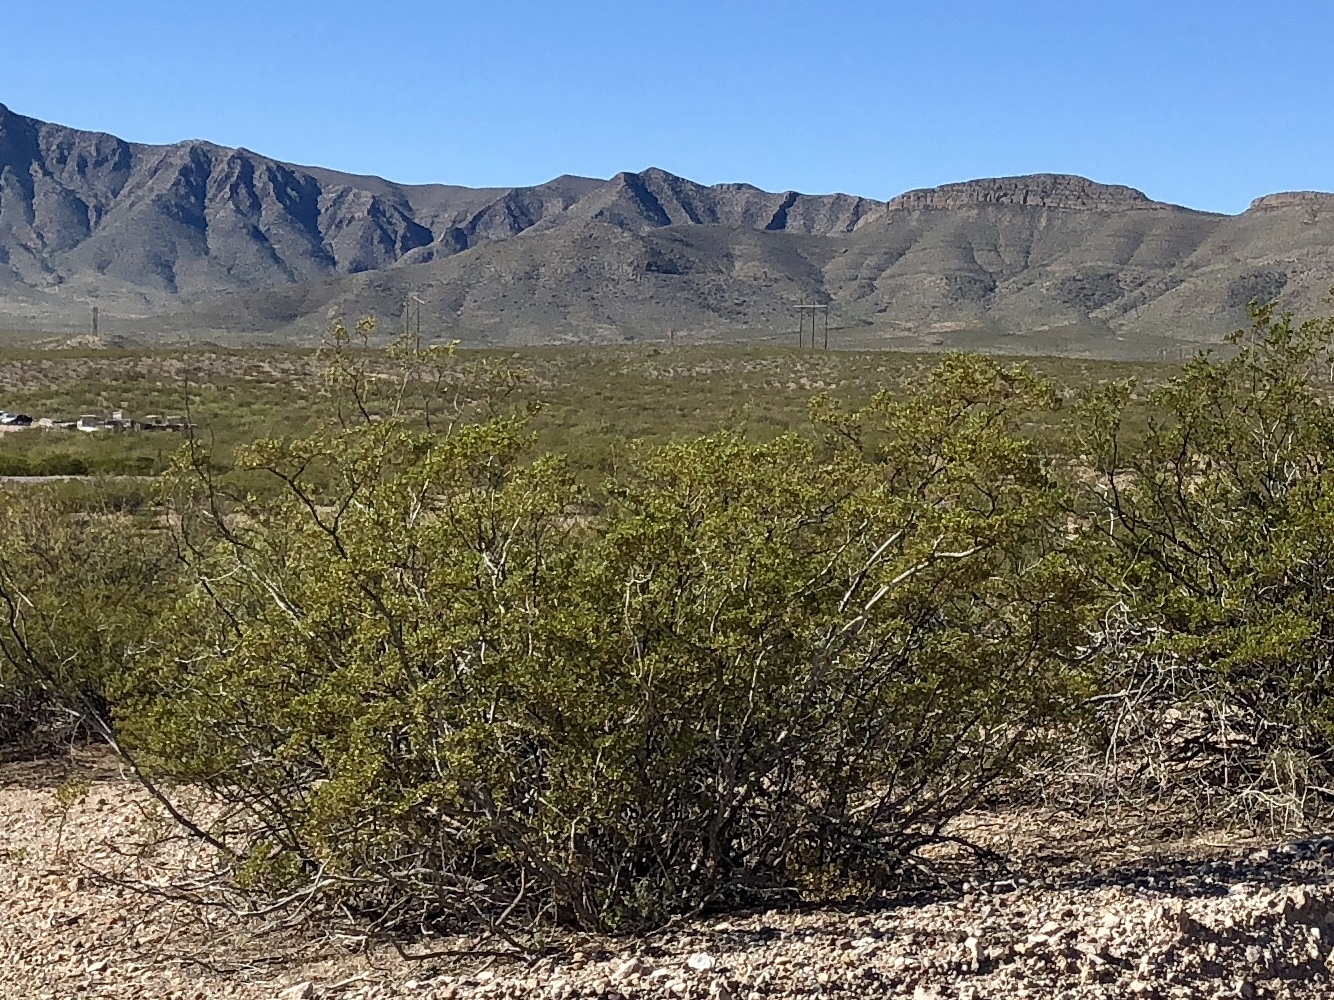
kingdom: Plantae
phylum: Tracheophyta
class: Magnoliopsida
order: Zygophyllales
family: Zygophyllaceae
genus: Larrea
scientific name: Larrea tridentata
